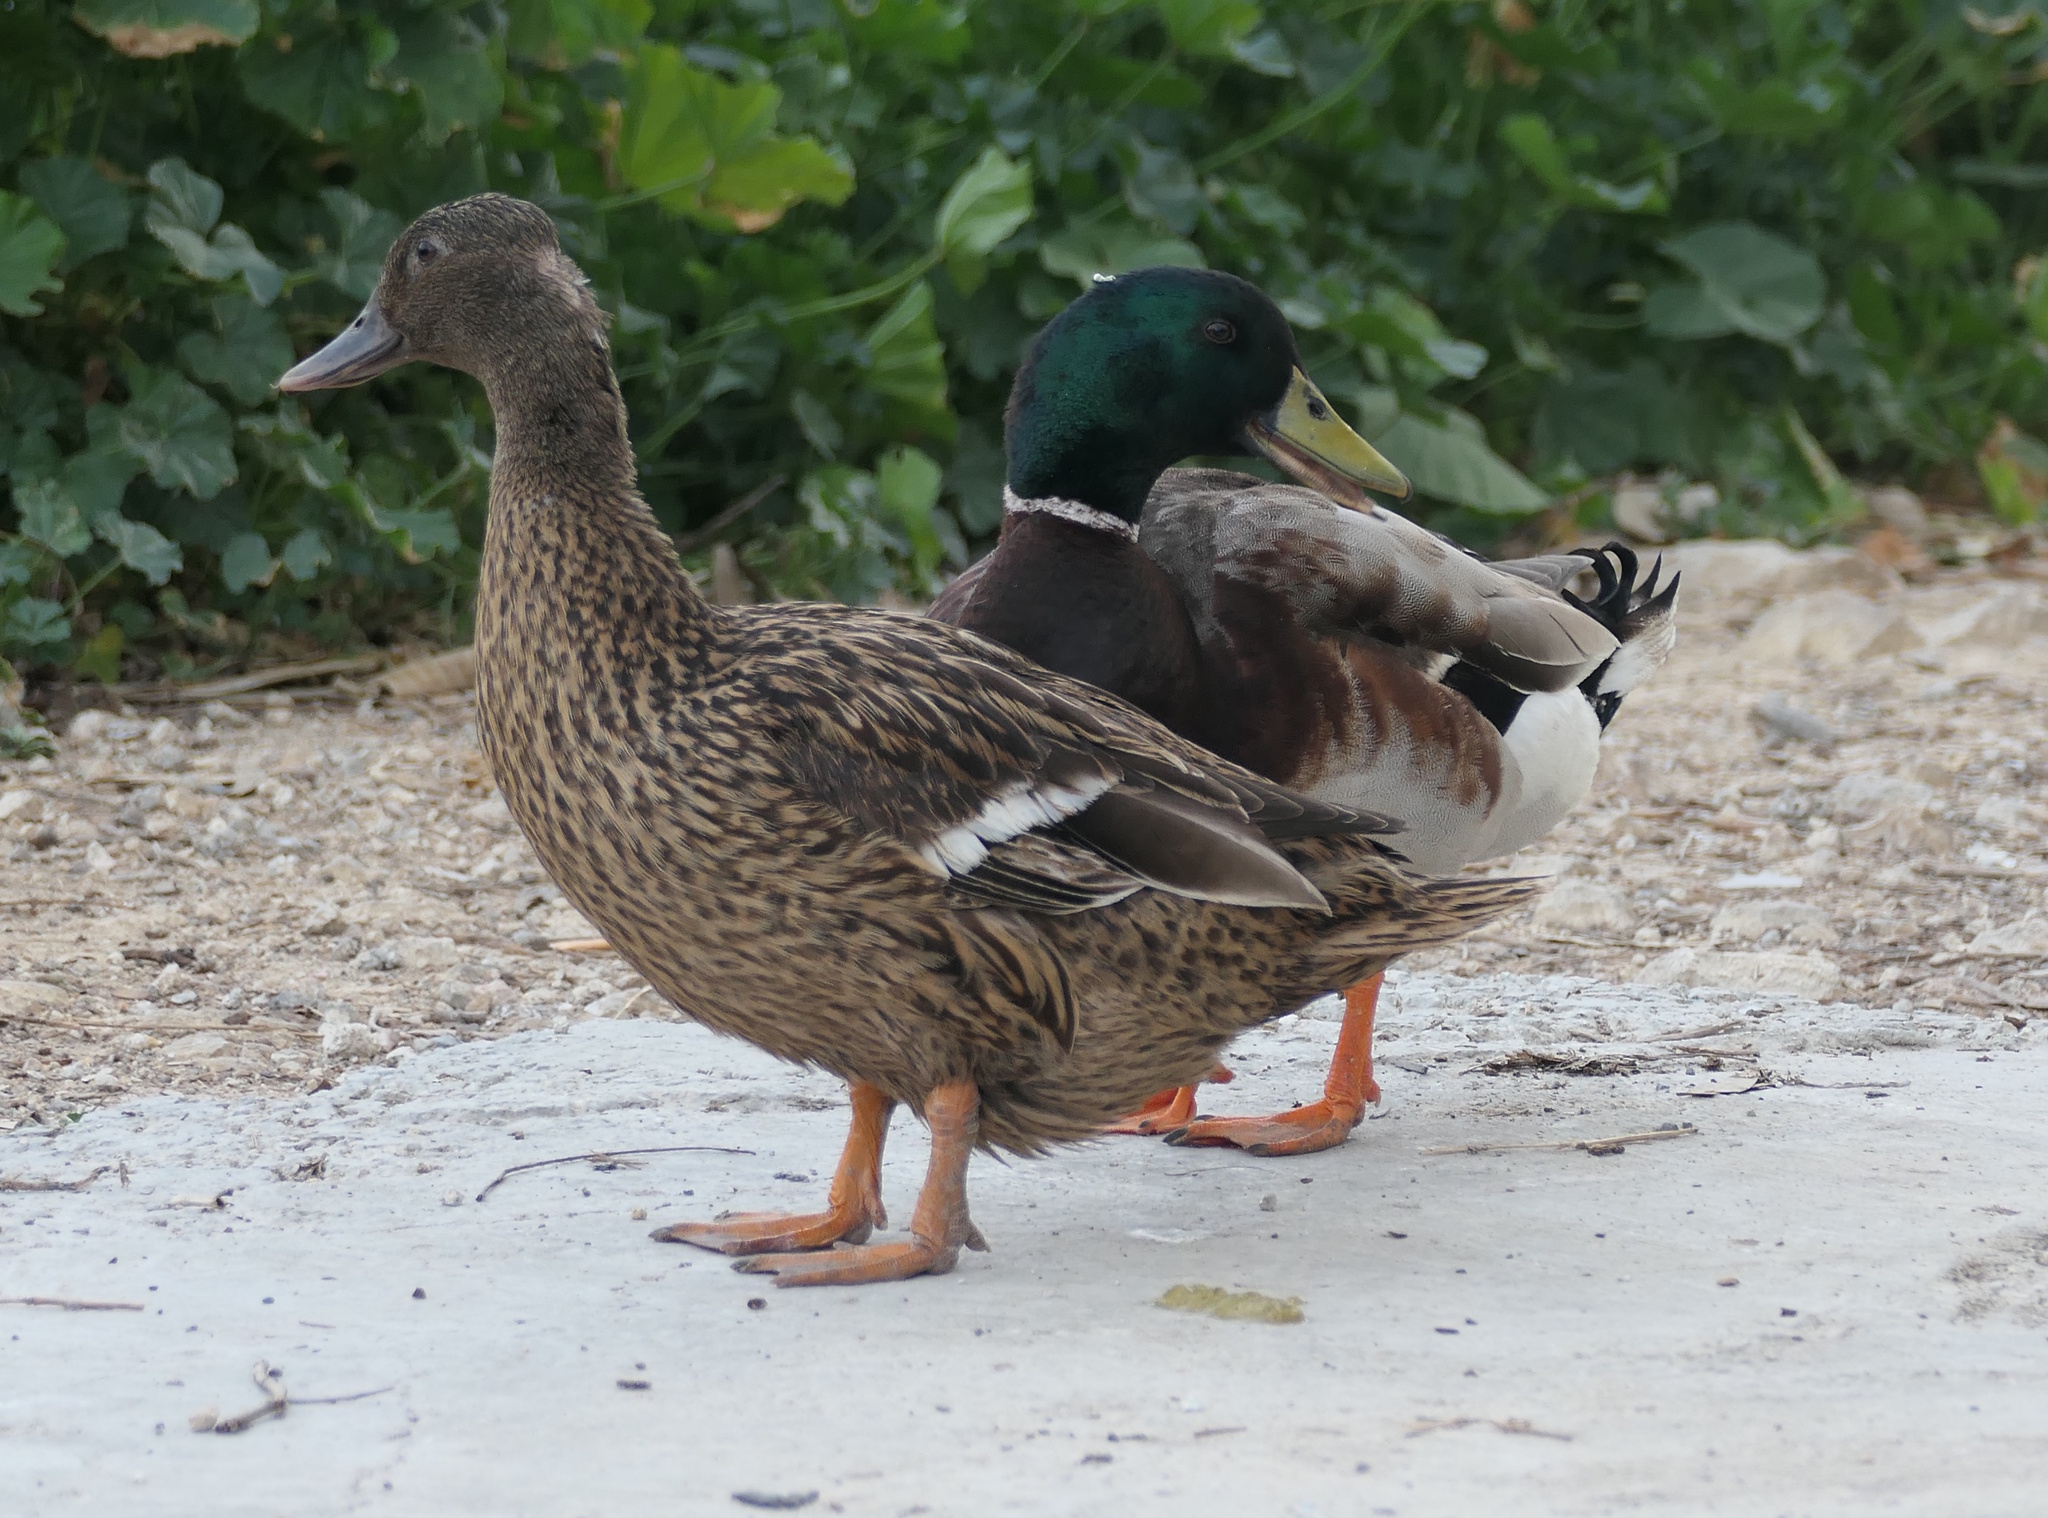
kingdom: Animalia
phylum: Chordata
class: Aves
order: Anseriformes
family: Anatidae
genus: Anas
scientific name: Anas platyrhynchos
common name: Mallard
